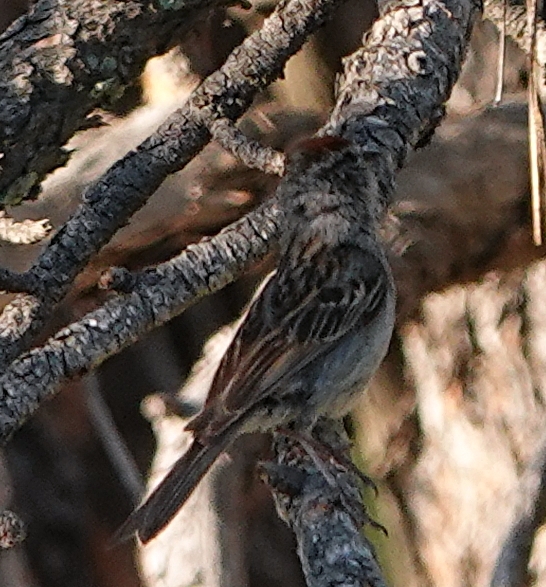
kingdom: Animalia
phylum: Chordata
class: Aves
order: Passeriformes
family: Passerellidae
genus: Spizella
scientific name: Spizella passerina
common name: Chipping sparrow
